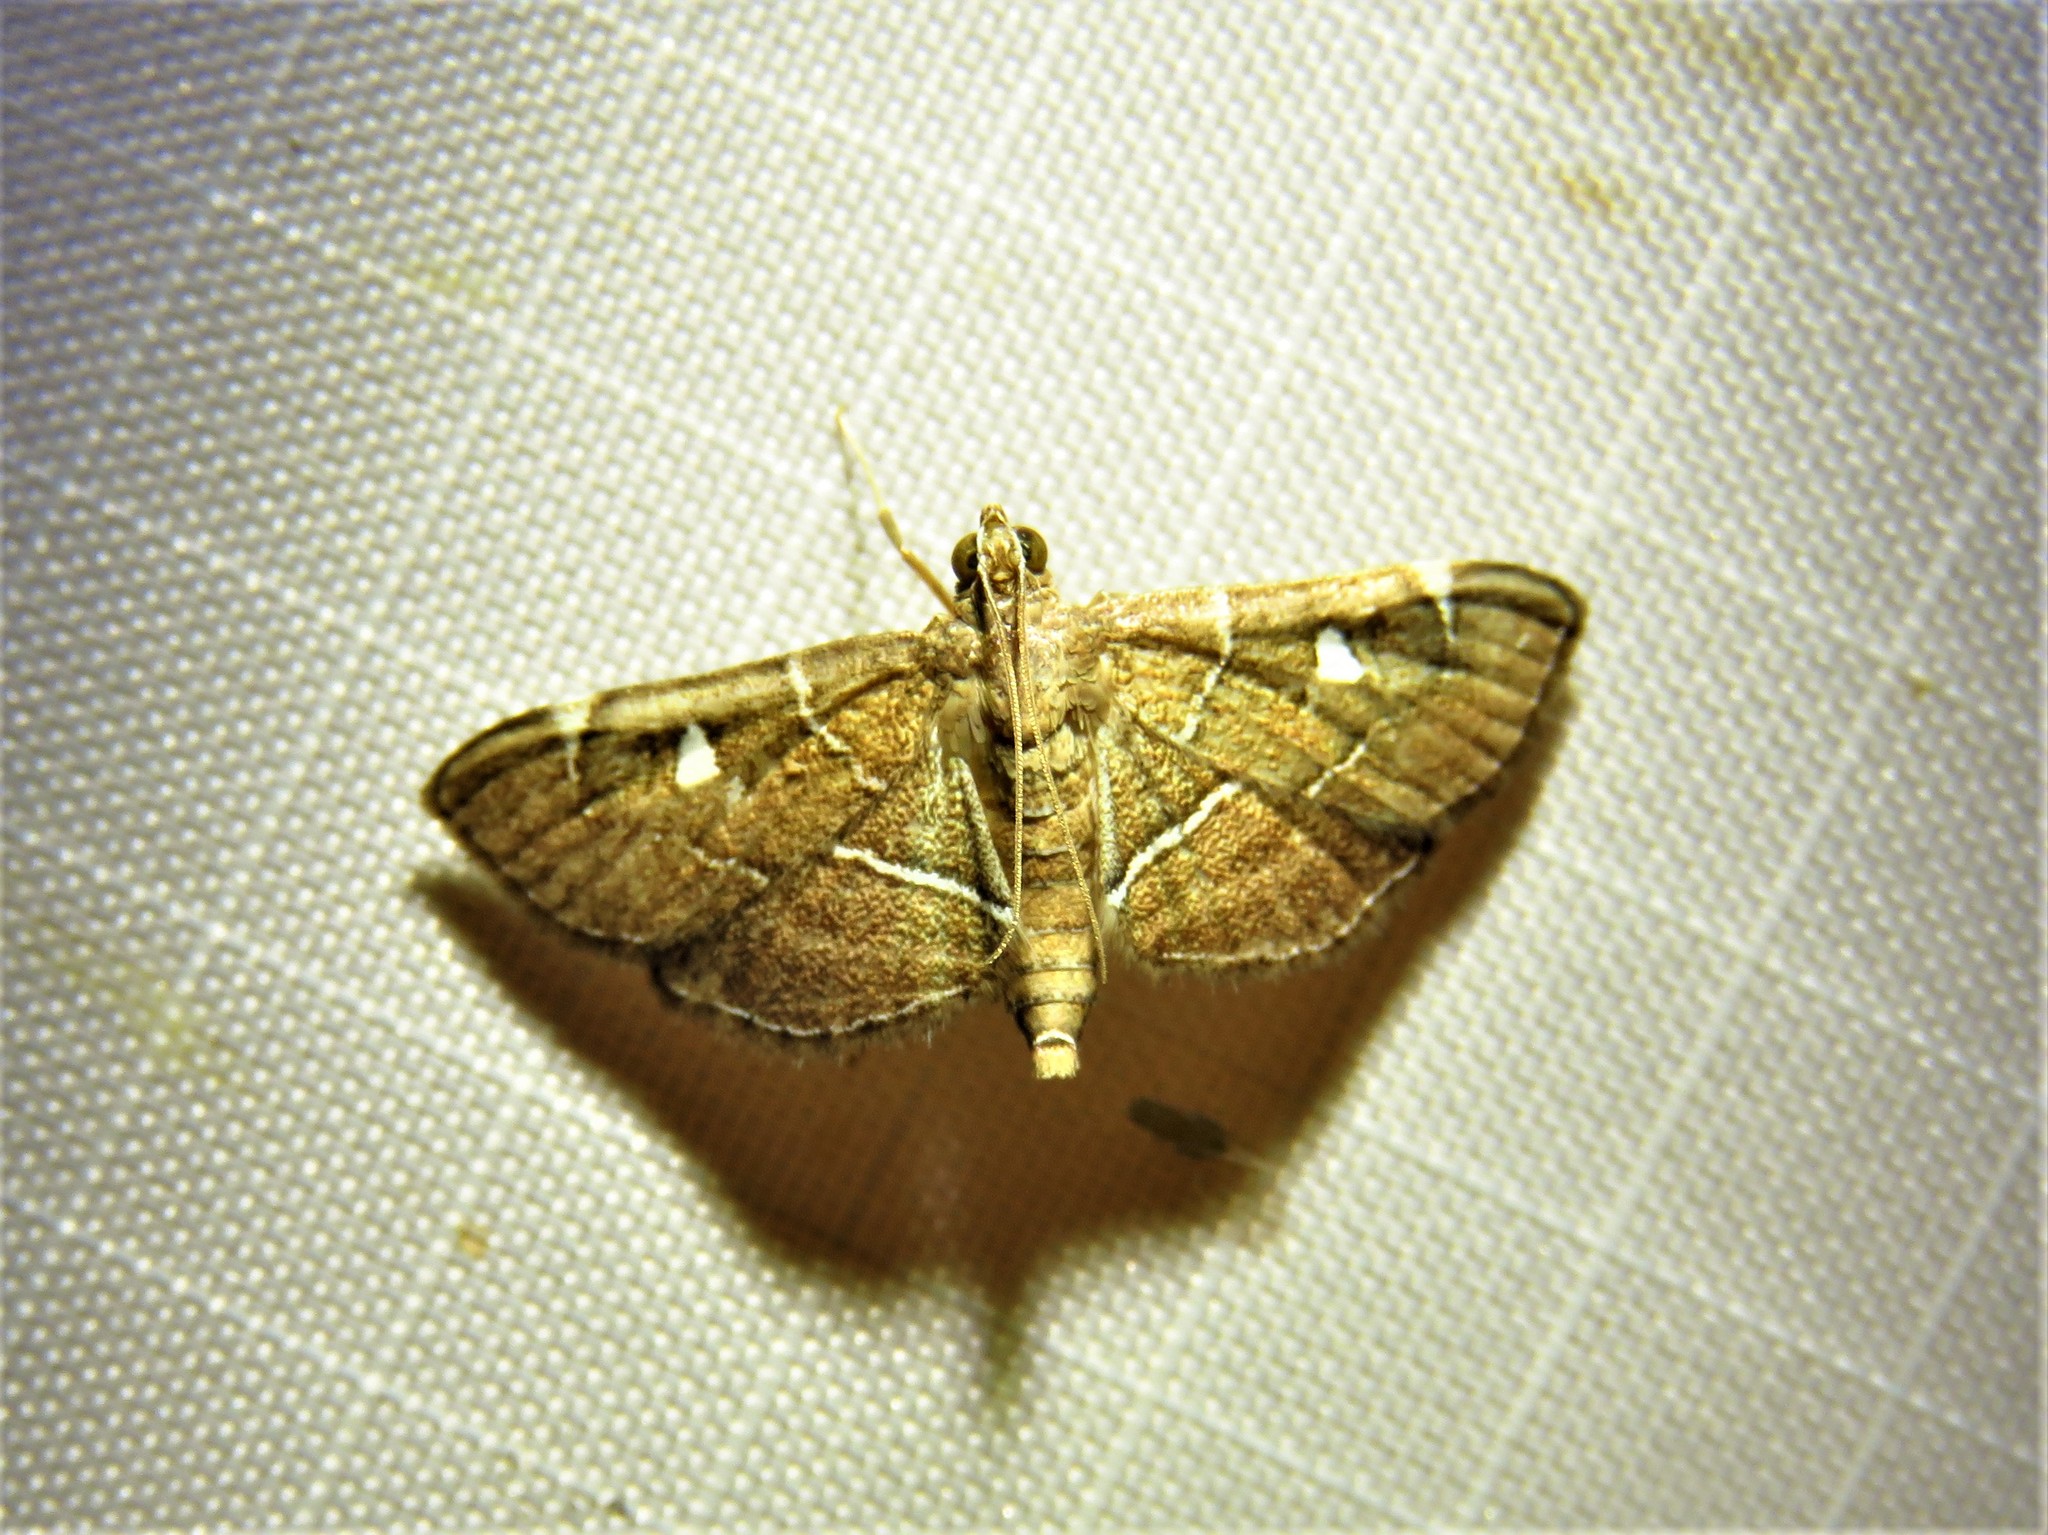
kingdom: Animalia
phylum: Arthropoda
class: Insecta
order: Lepidoptera
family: Crambidae
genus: Lamprosema
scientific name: Lamprosema victoriae
